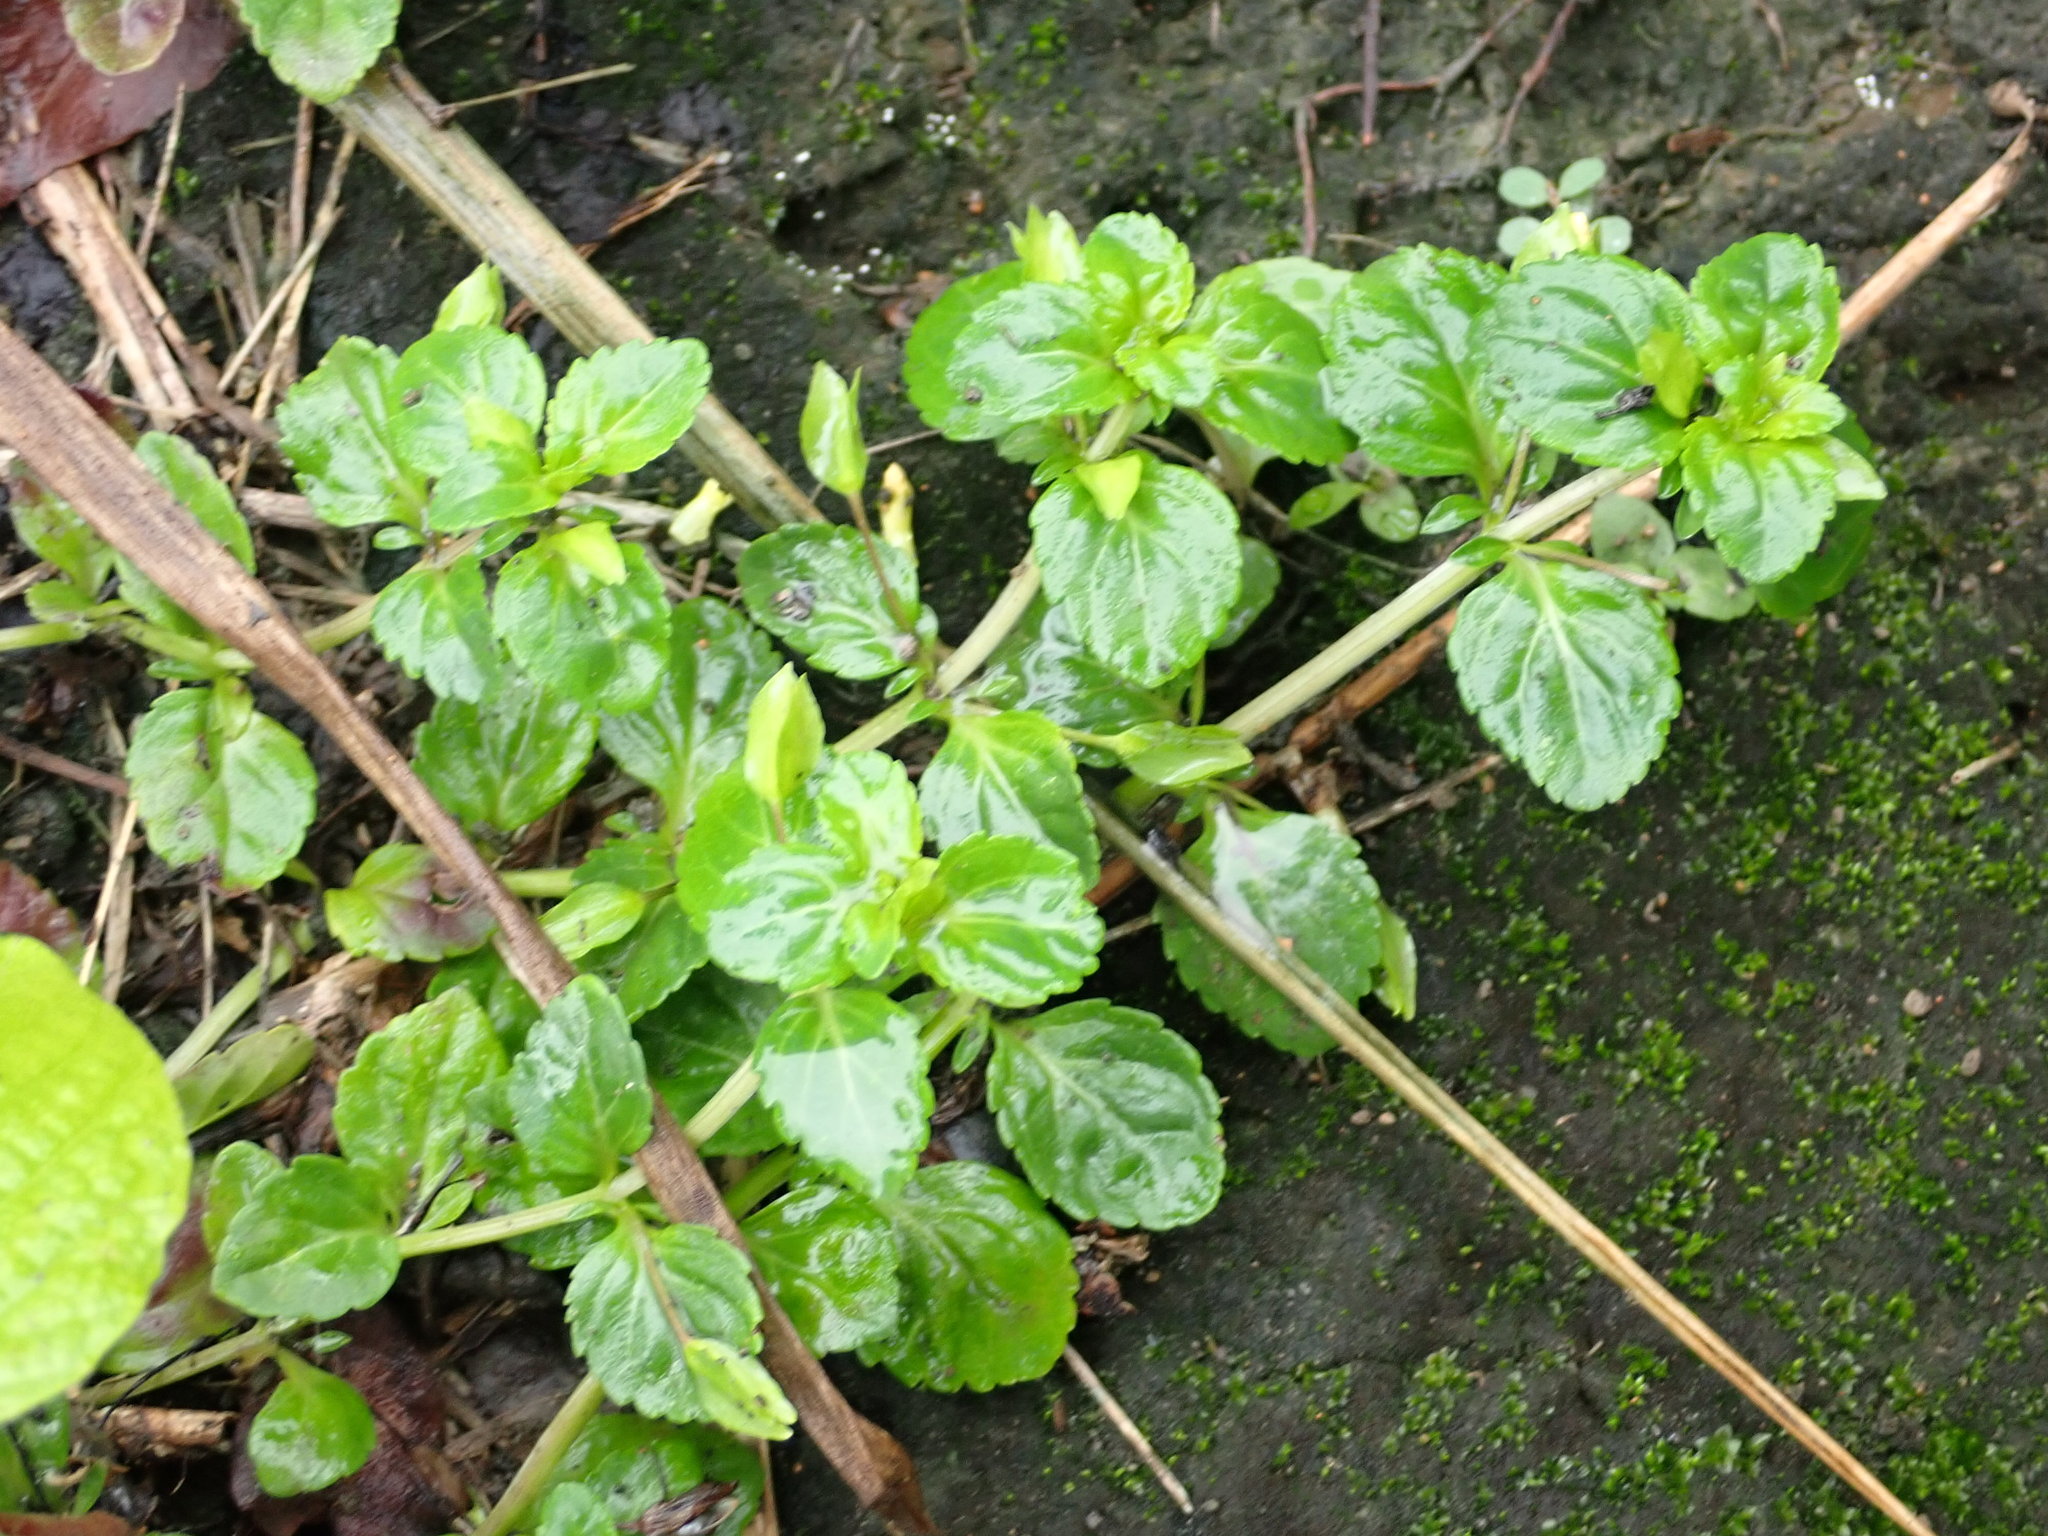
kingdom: Plantae
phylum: Tracheophyta
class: Magnoliopsida
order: Lamiales
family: Plantaginaceae
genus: Mecardonia
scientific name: Mecardonia procumbens
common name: Baby jump-up
